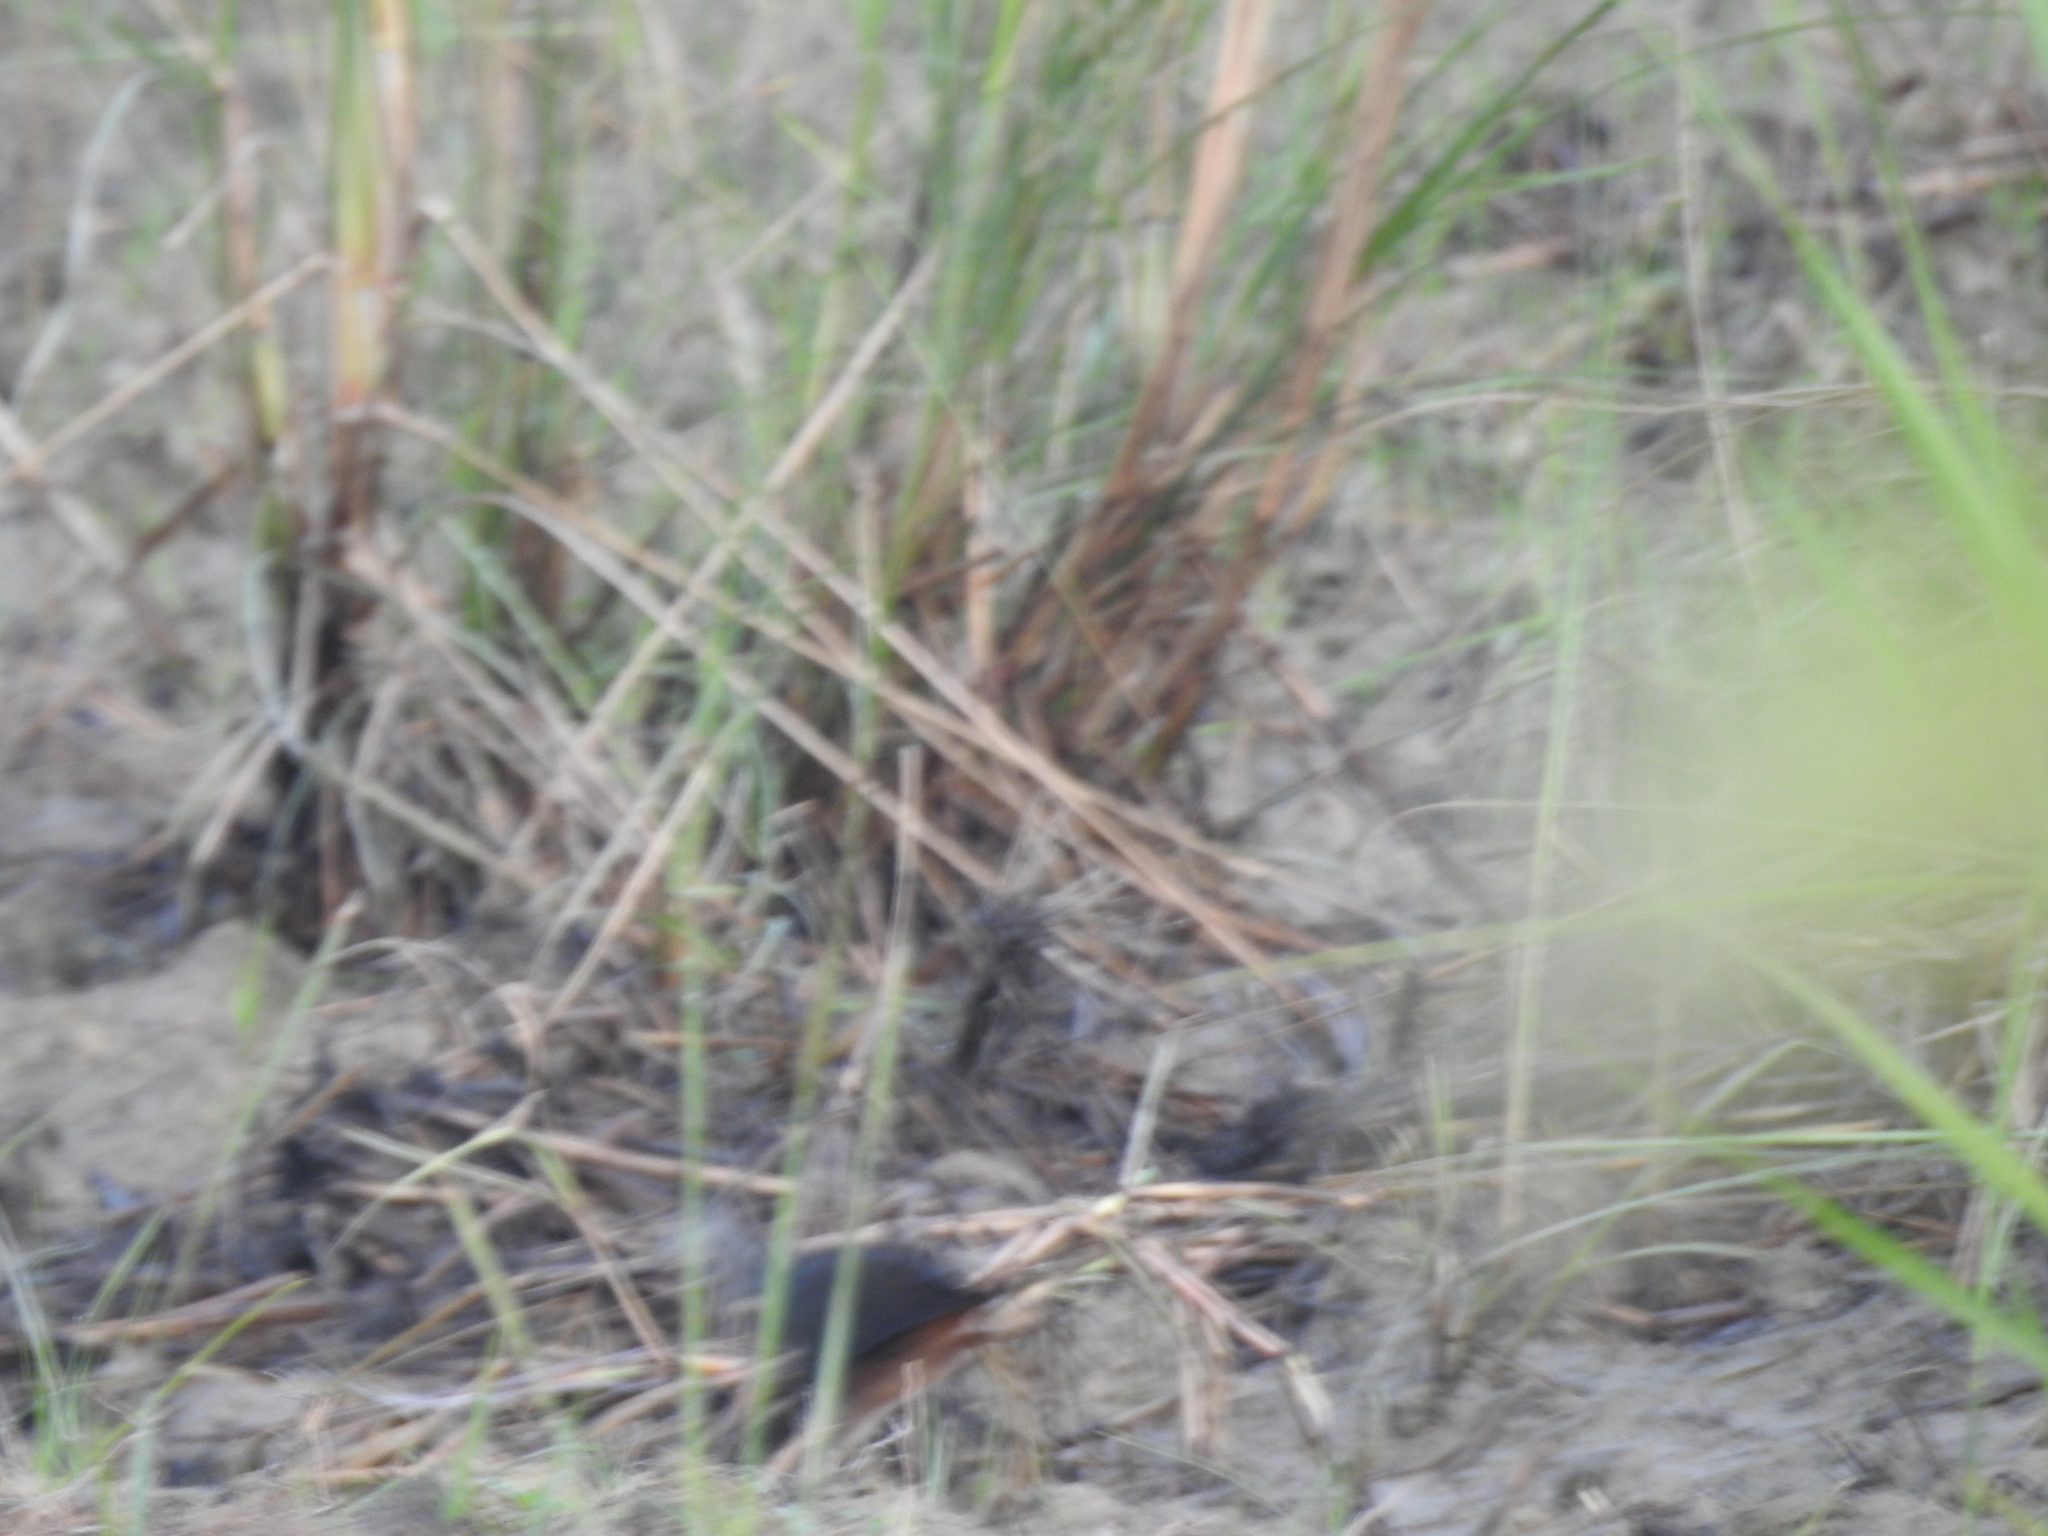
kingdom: Animalia
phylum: Chordata
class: Aves
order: Gruiformes
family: Rallidae
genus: Amaurornis
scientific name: Amaurornis phoenicurus
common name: White-breasted waterhen
